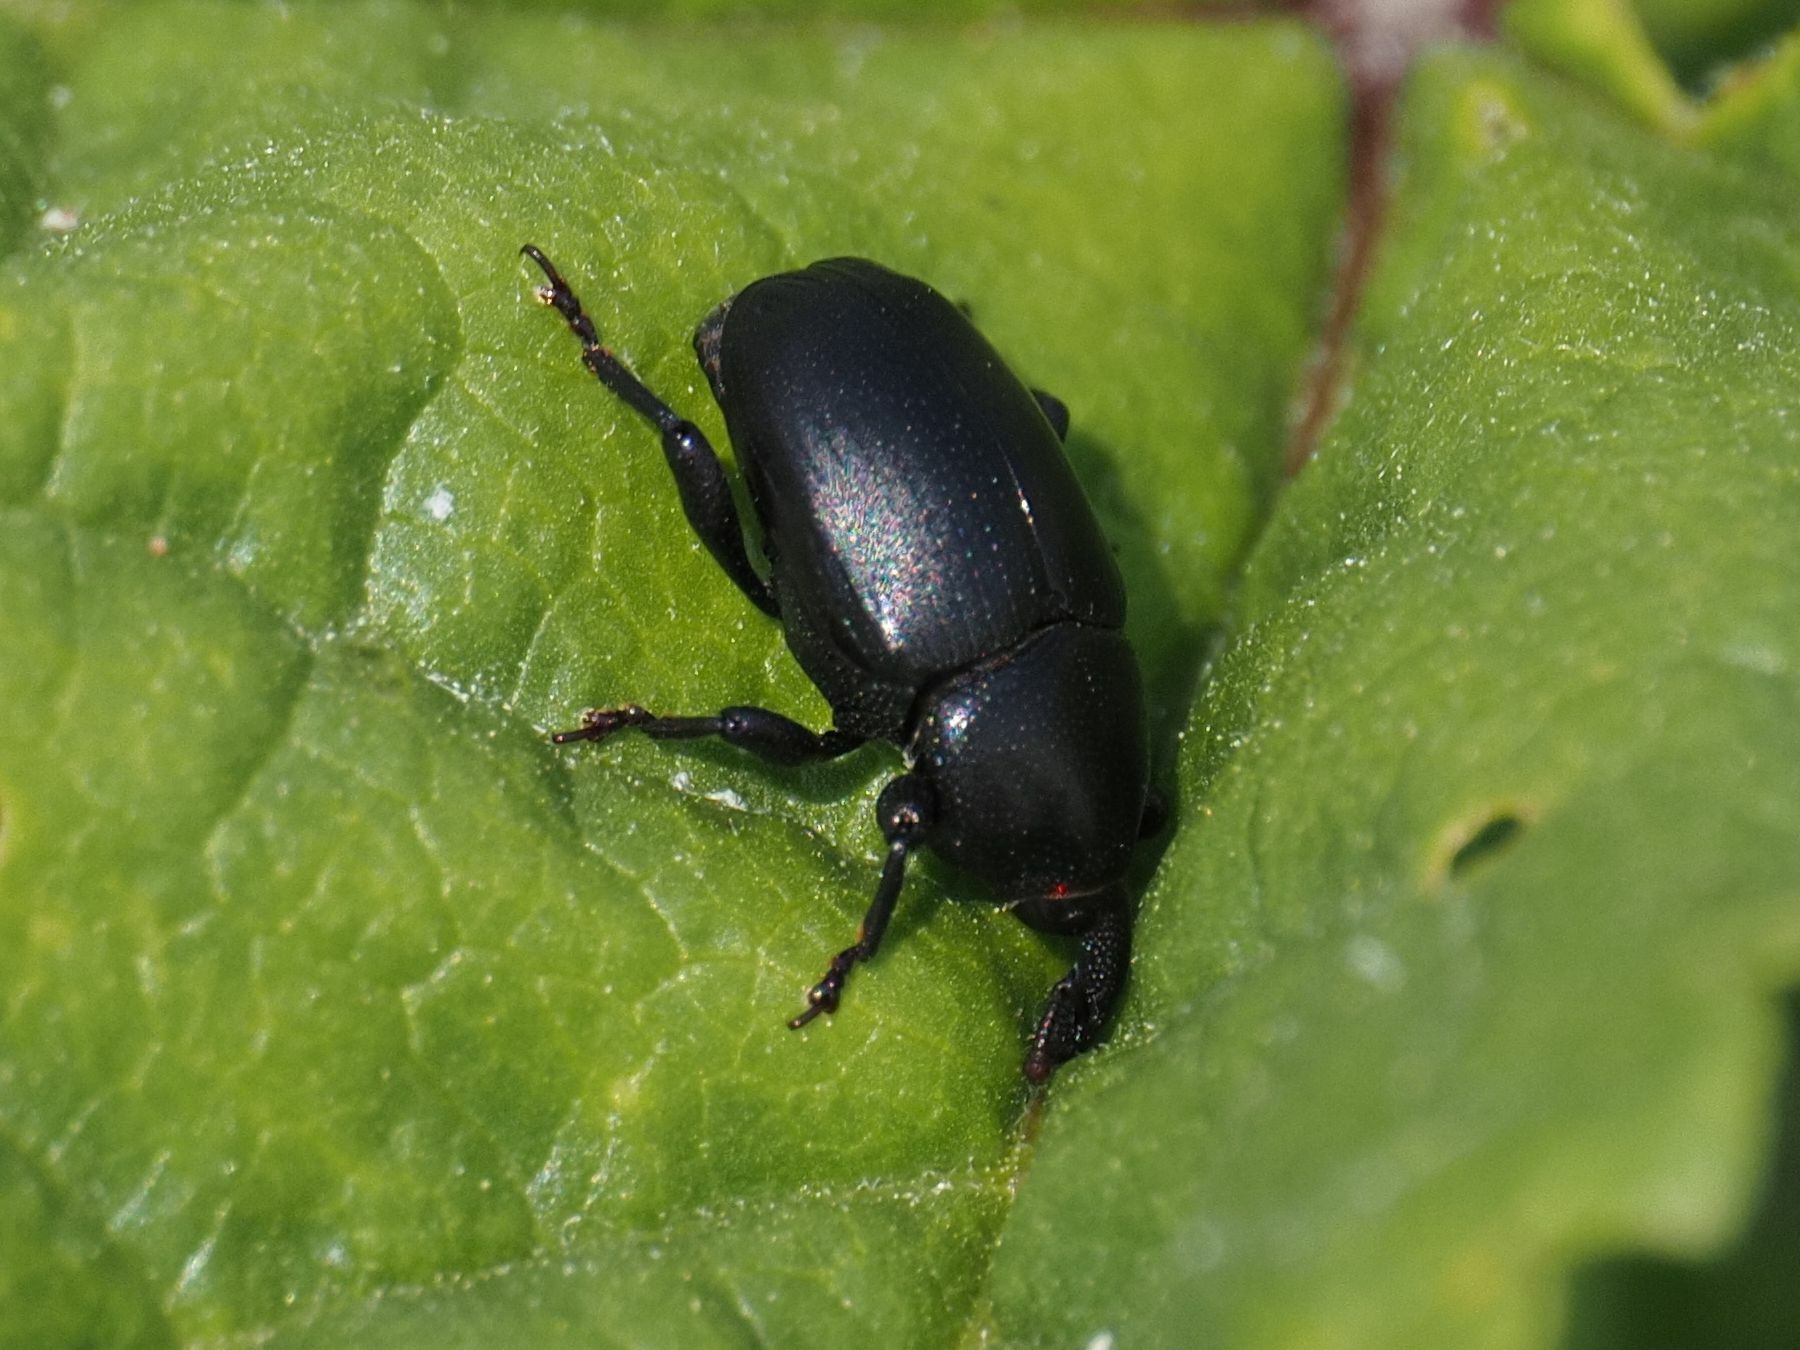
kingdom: Animalia
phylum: Arthropoda
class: Insecta
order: Coleoptera
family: Curculionidae
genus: Malvaevora
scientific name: Malvaevora timida
